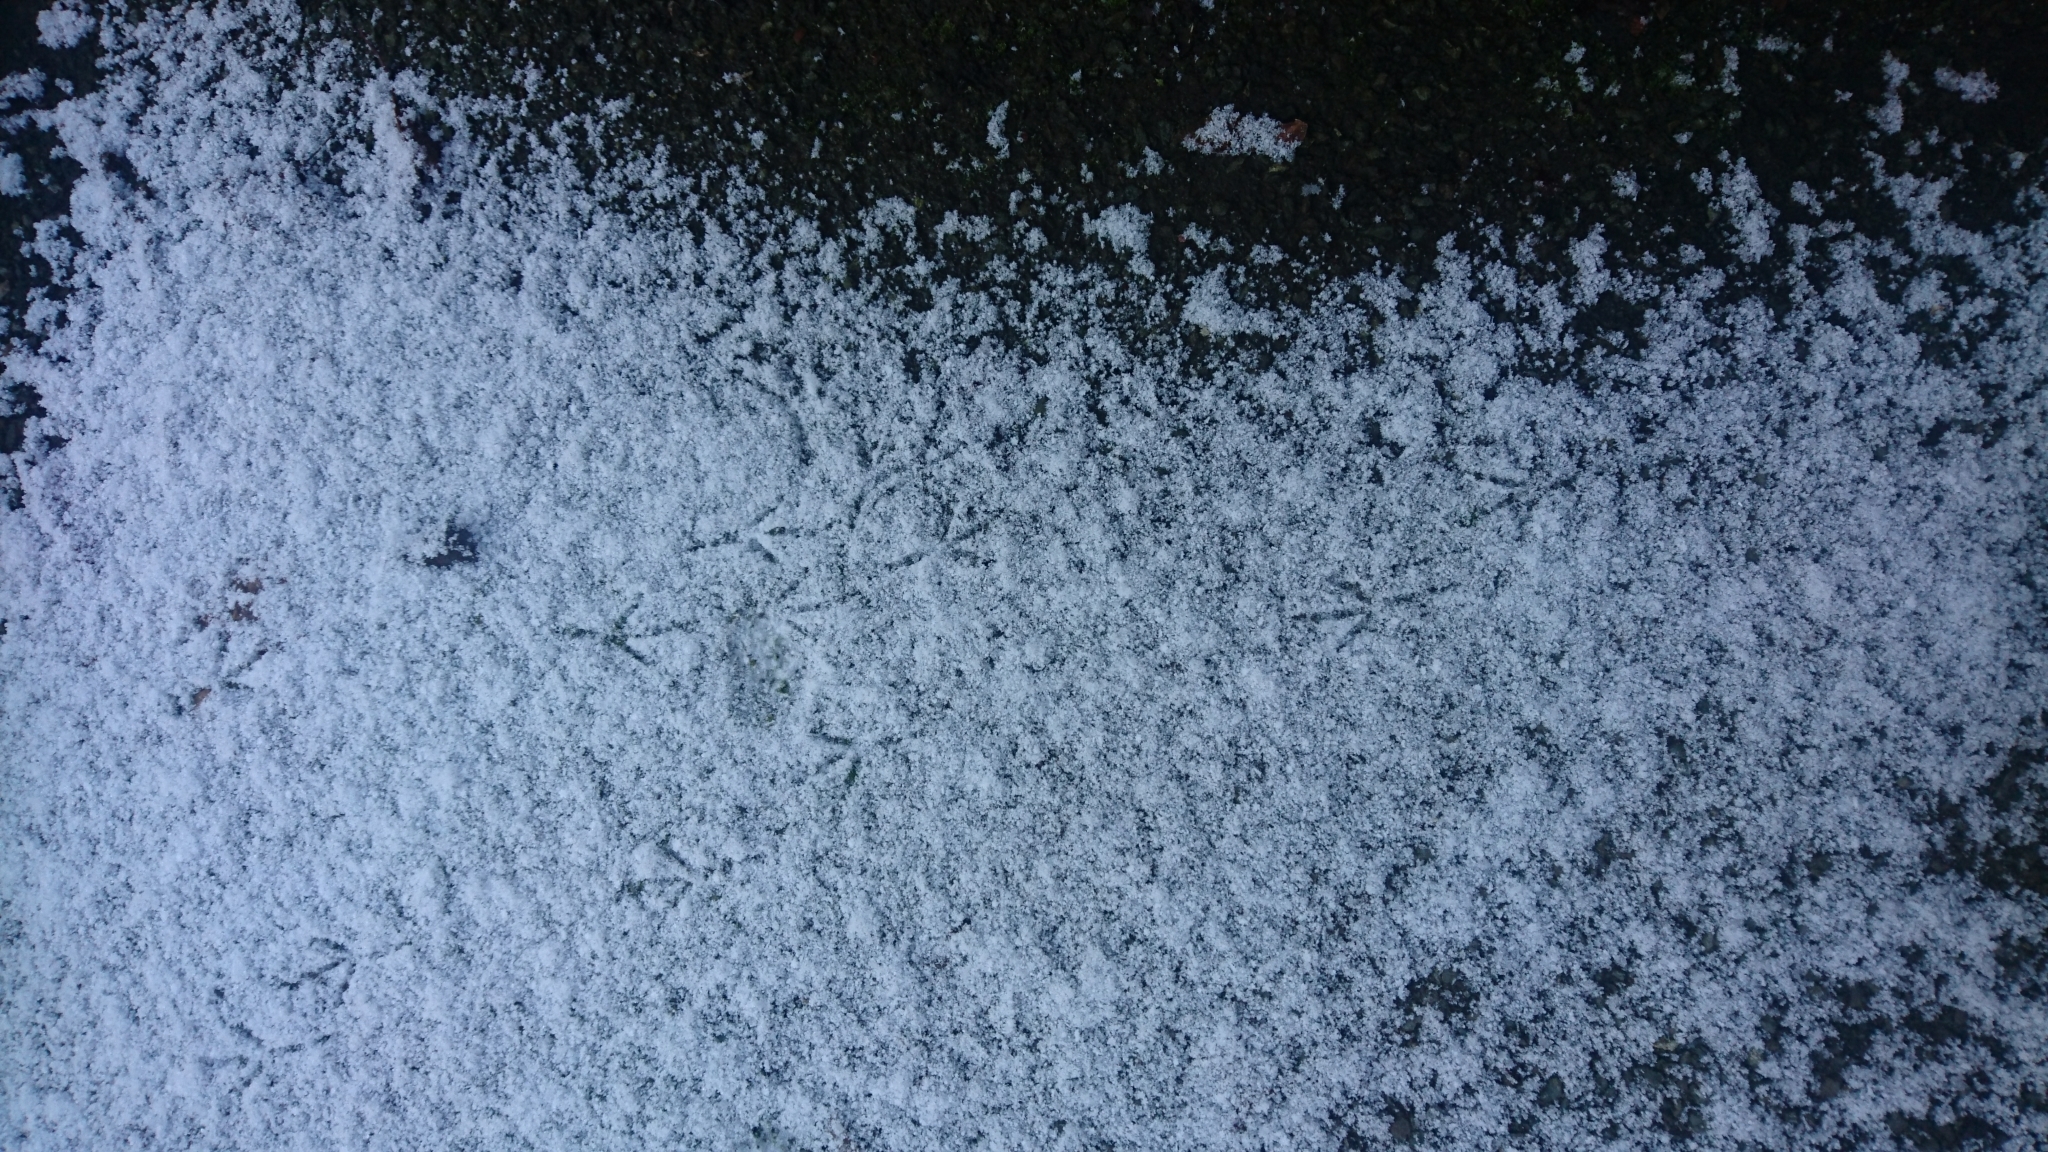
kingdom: Animalia
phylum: Chordata
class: Aves
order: Passeriformes
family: Turdidae
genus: Turdus
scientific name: Turdus merula
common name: Common blackbird
